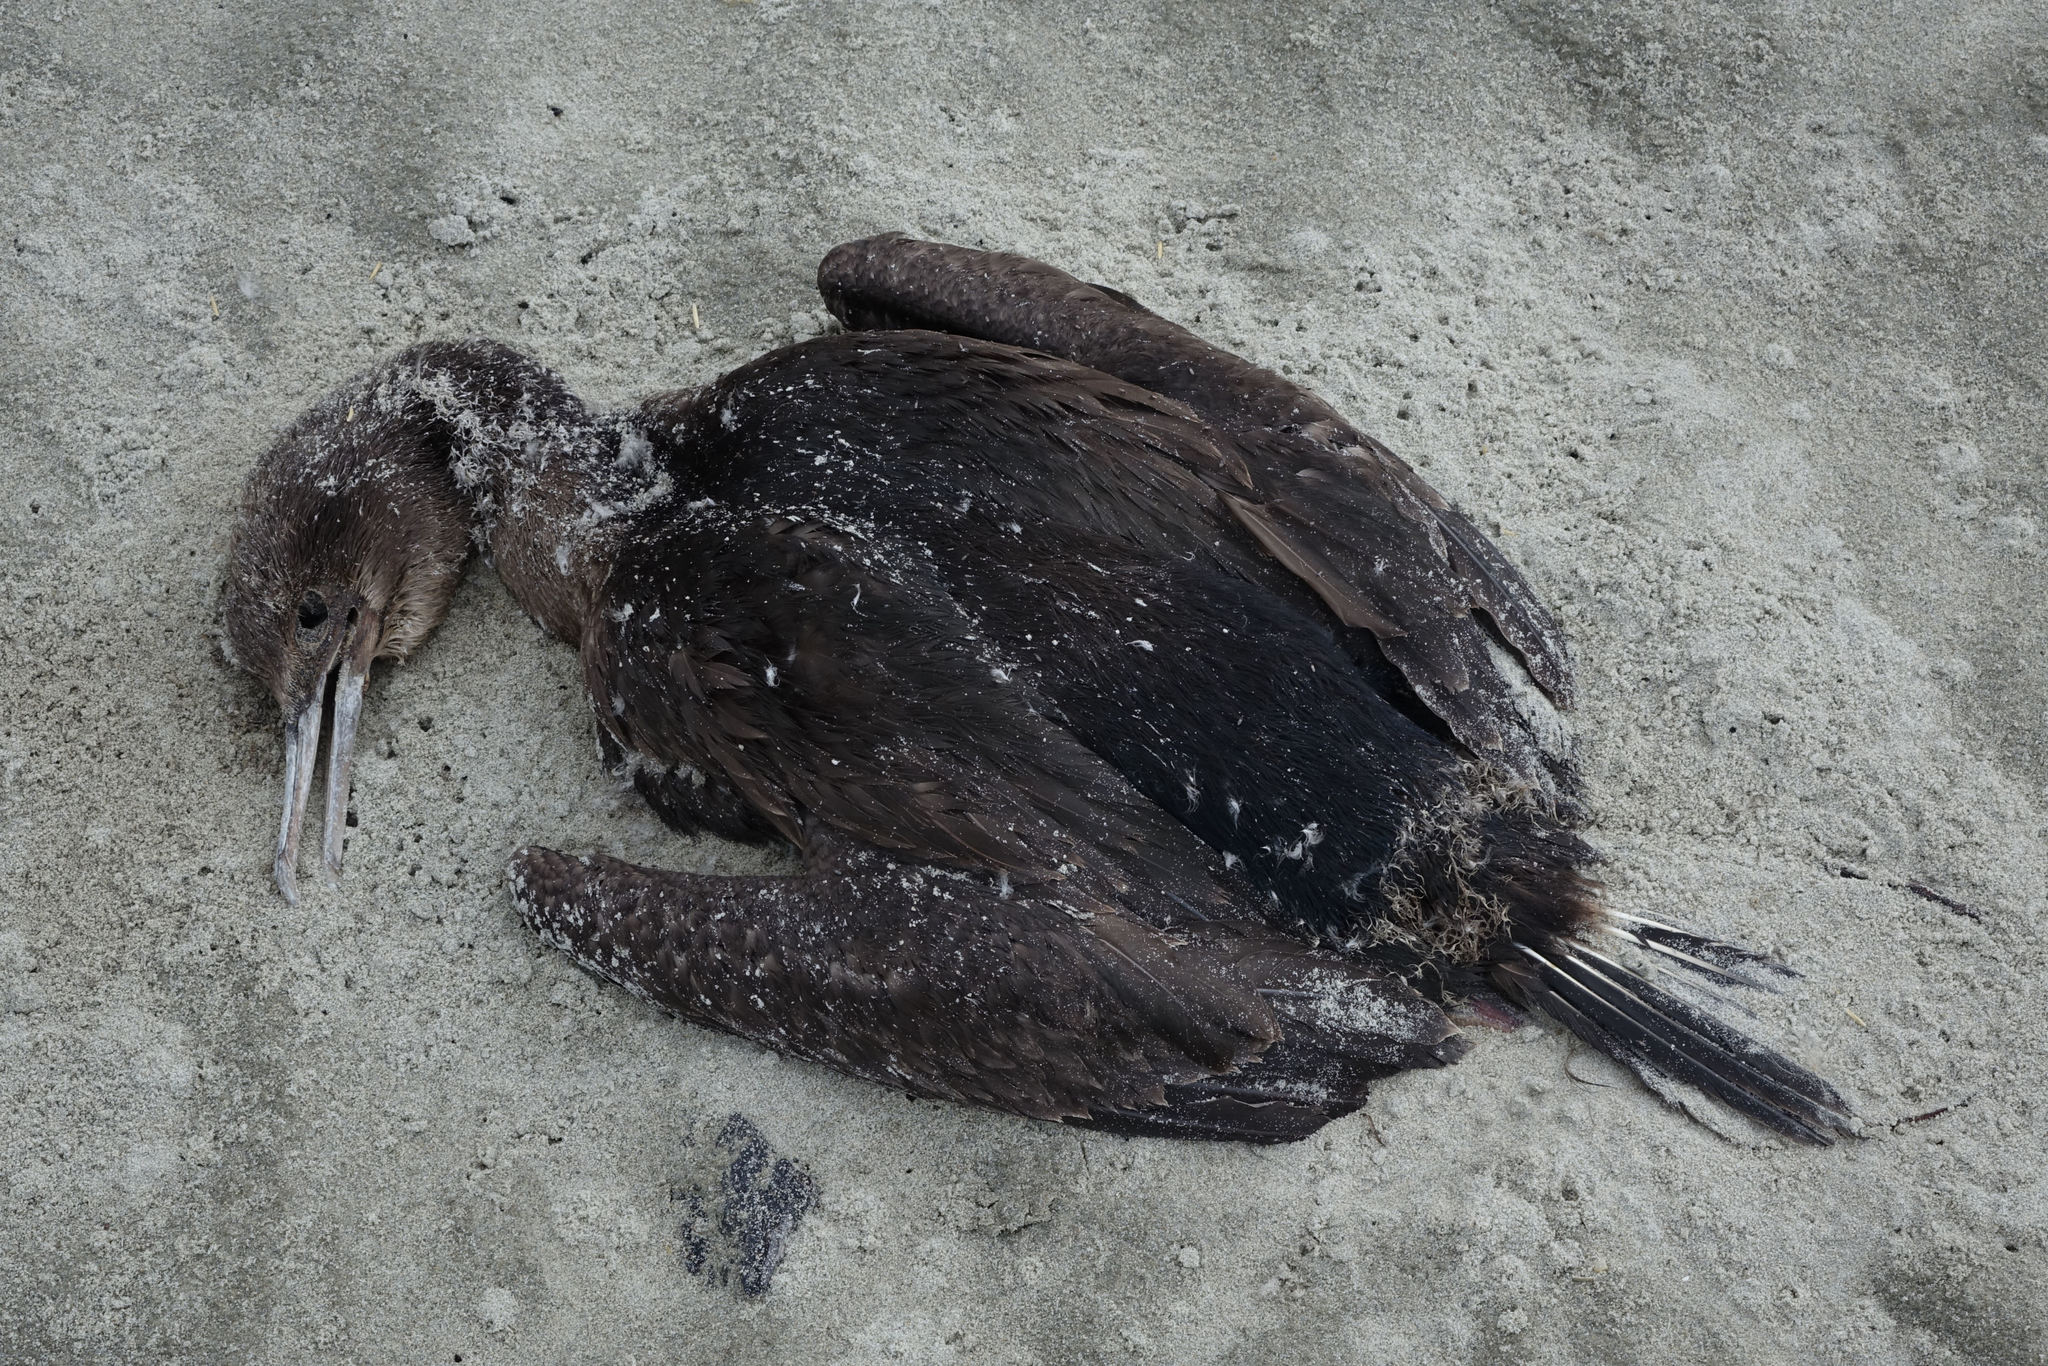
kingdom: Animalia
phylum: Chordata
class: Aves
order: Suliformes
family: Phalacrocoracidae
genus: Leucocarbo
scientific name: Leucocarbo chalconotus
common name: Stewart shag
